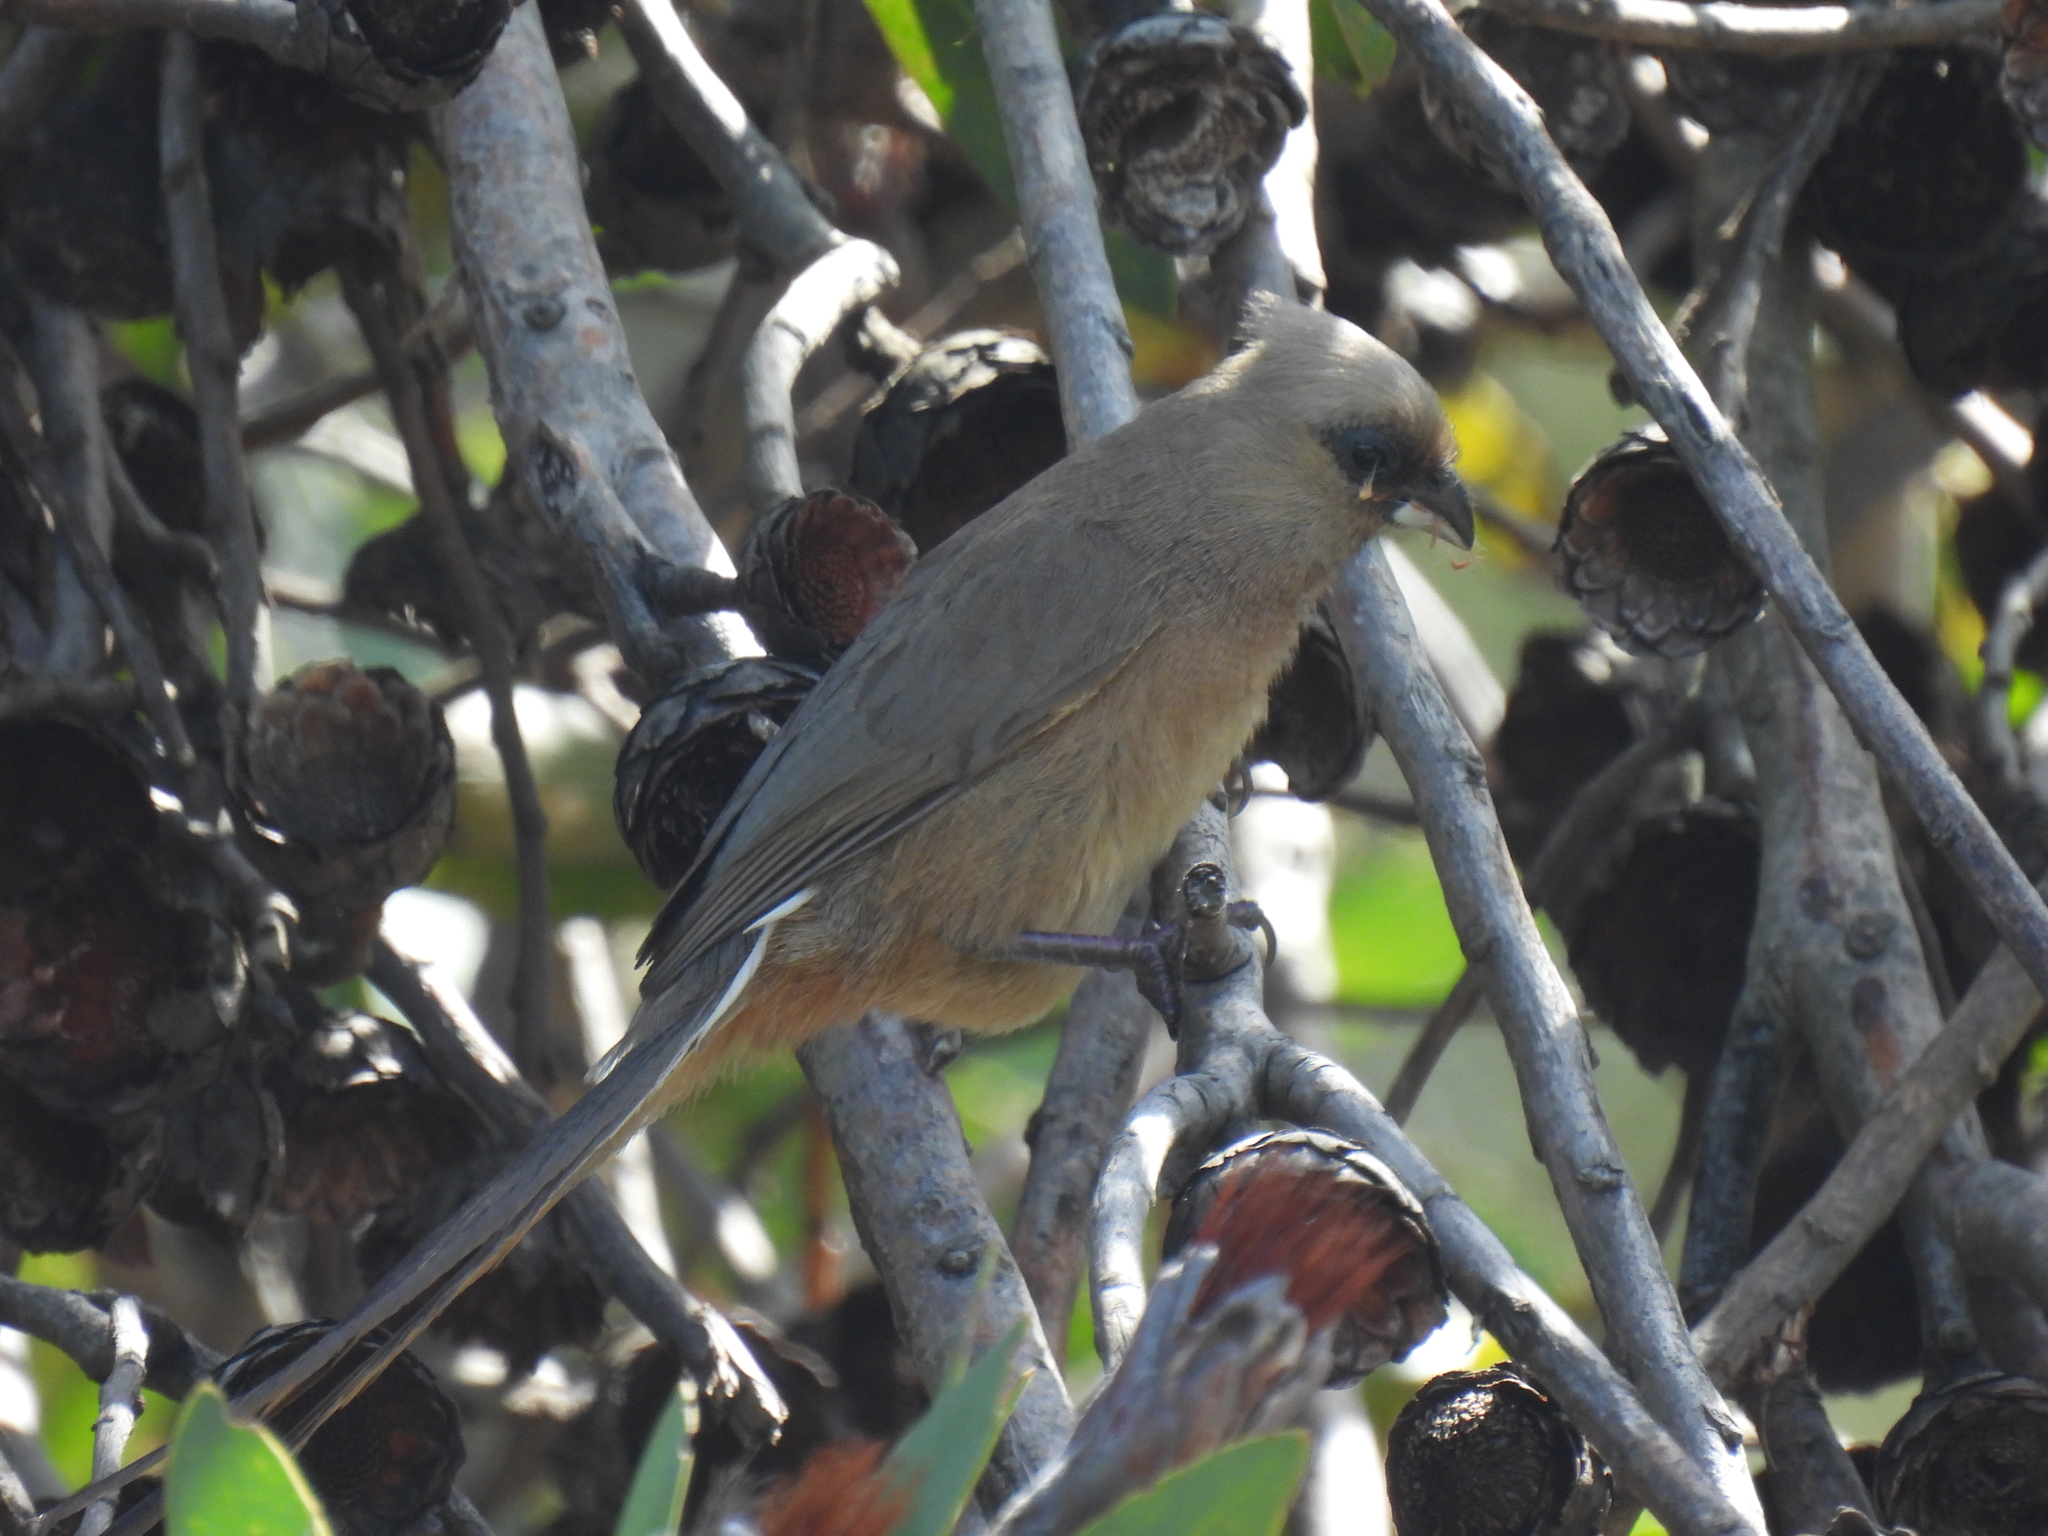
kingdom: Animalia
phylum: Chordata
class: Aves
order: Coliiformes
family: Coliidae
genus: Colius
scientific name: Colius striatus
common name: Speckled mousebird
